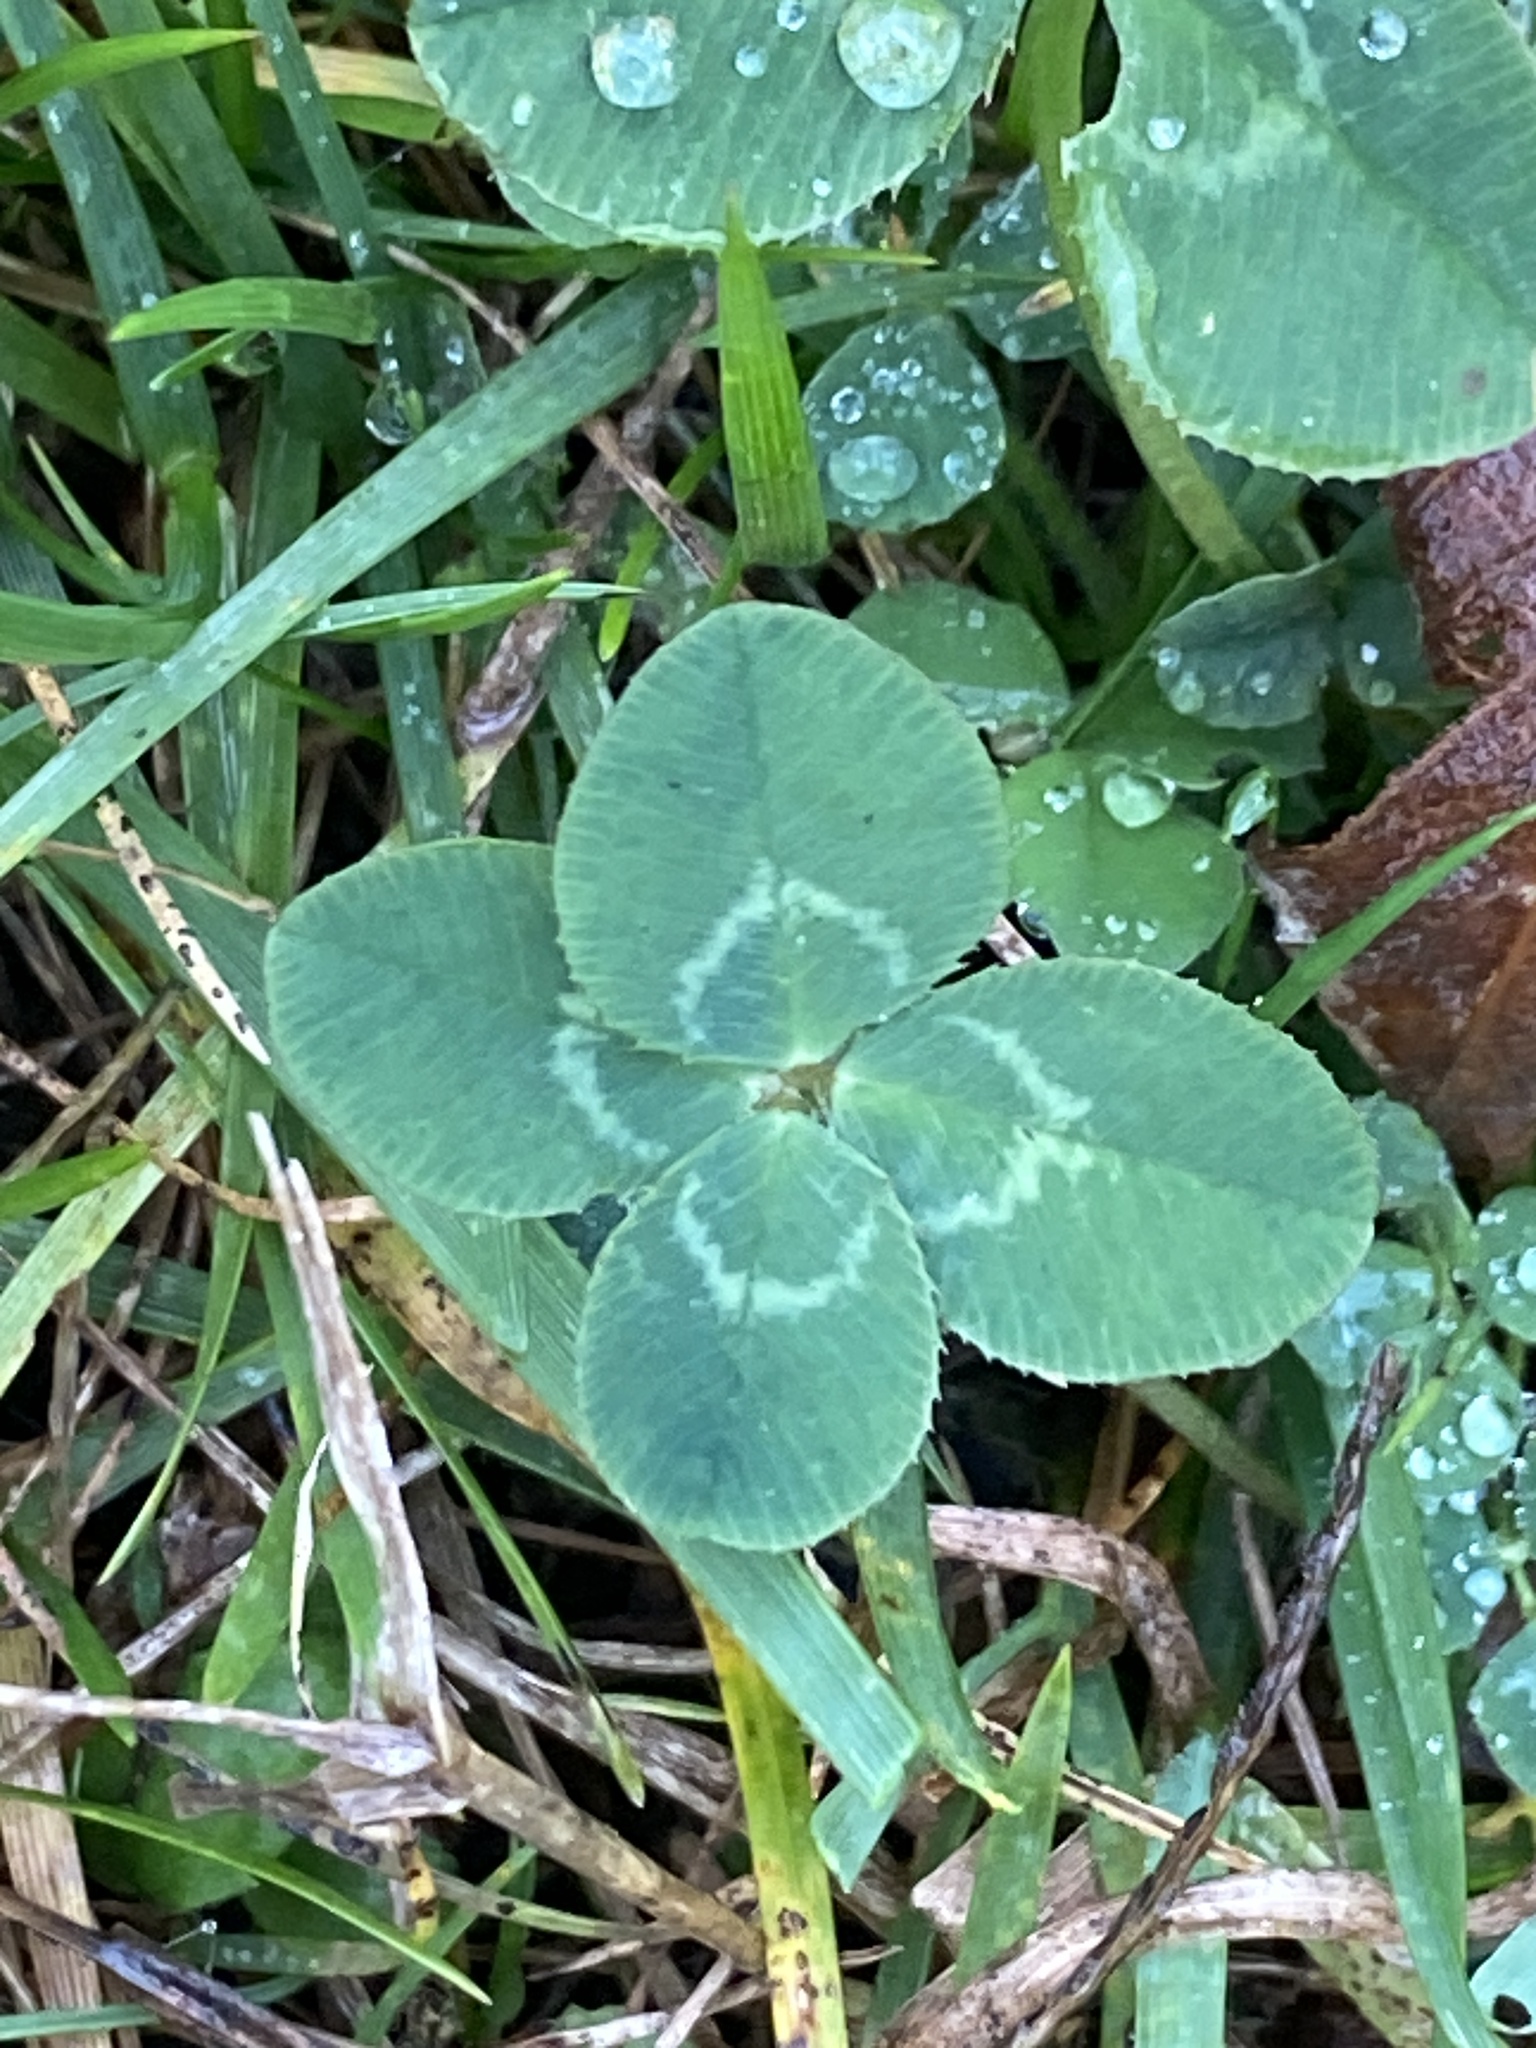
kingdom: Plantae
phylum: Tracheophyta
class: Magnoliopsida
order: Fabales
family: Fabaceae
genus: Trifolium
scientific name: Trifolium repens
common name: White clover
